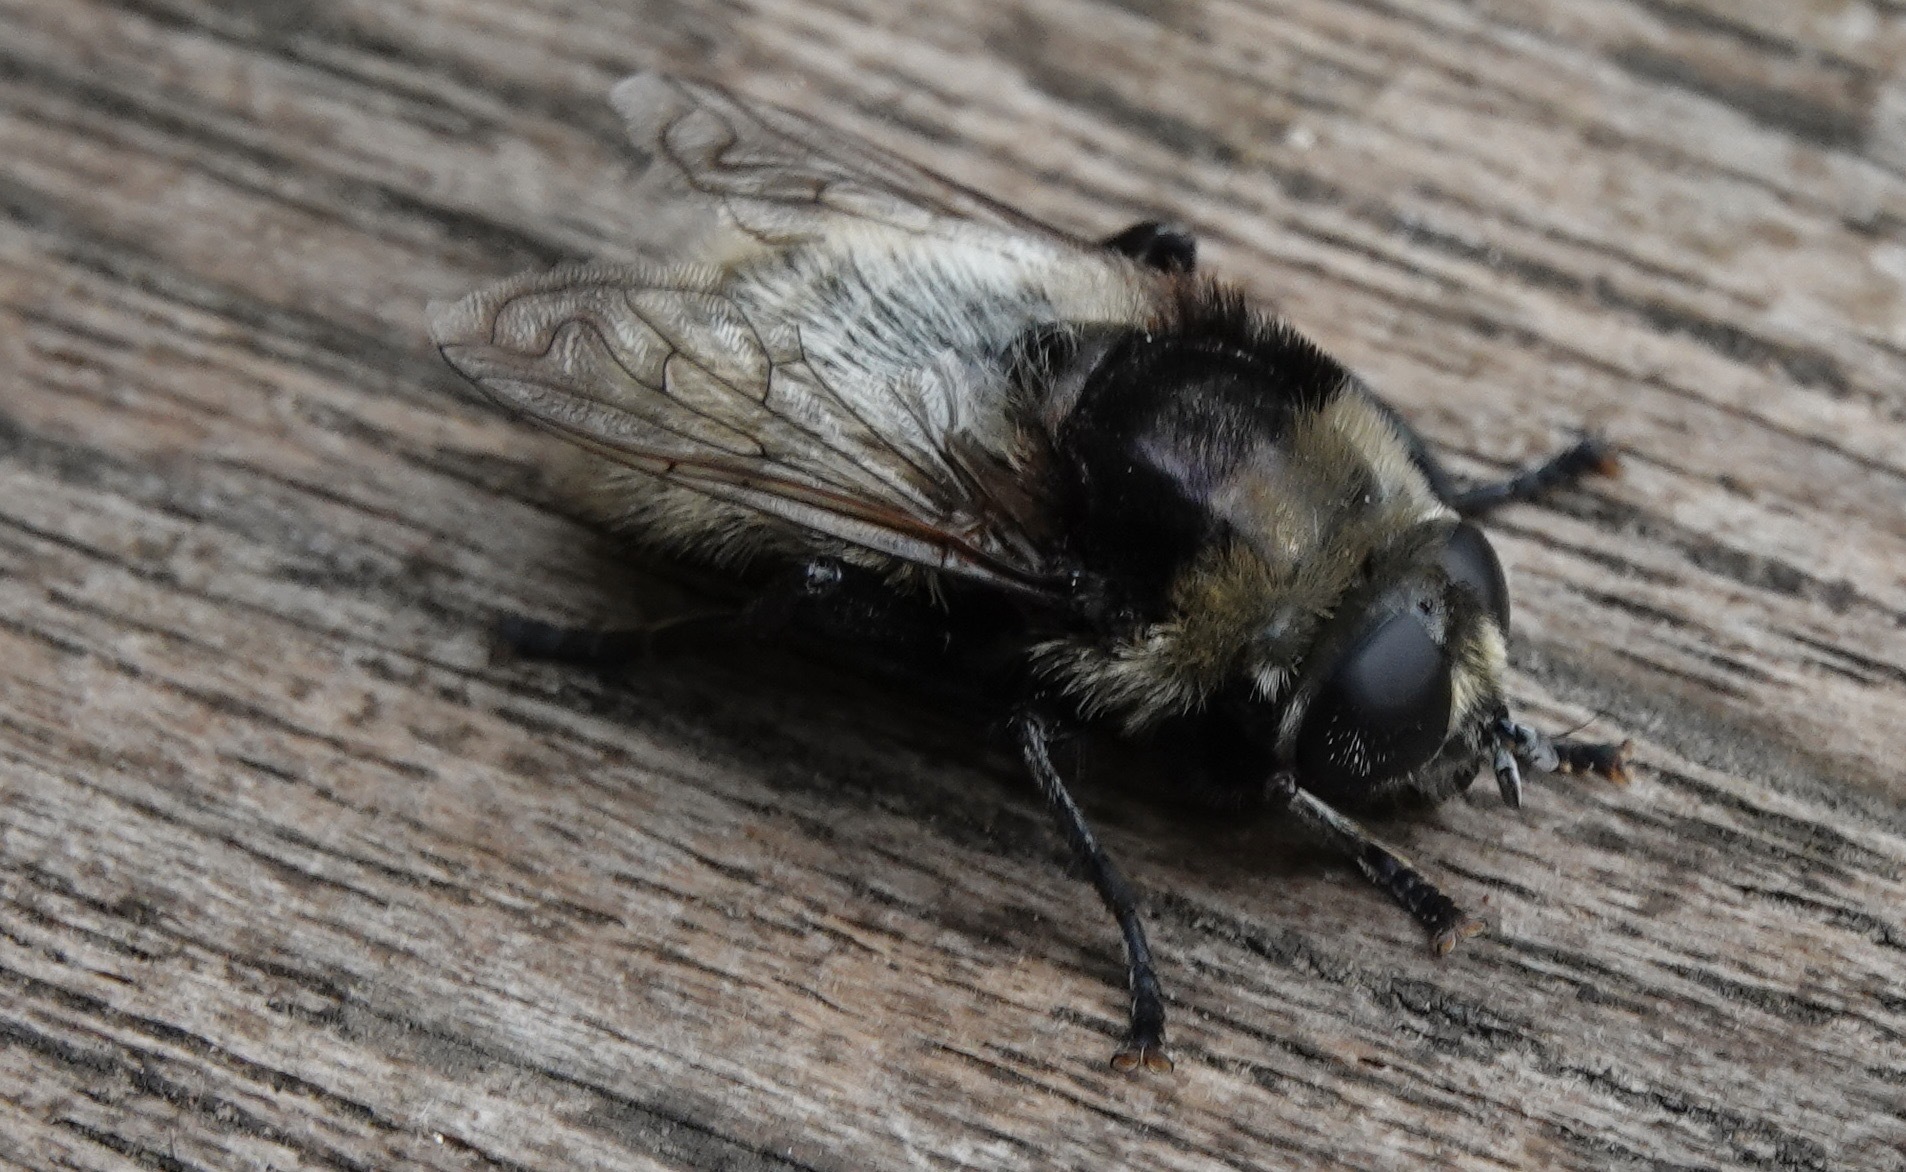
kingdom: Animalia
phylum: Arthropoda
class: Insecta
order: Diptera
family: Syrphidae
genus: Merodon
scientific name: Merodon equestris
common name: Greater bulb-fly
